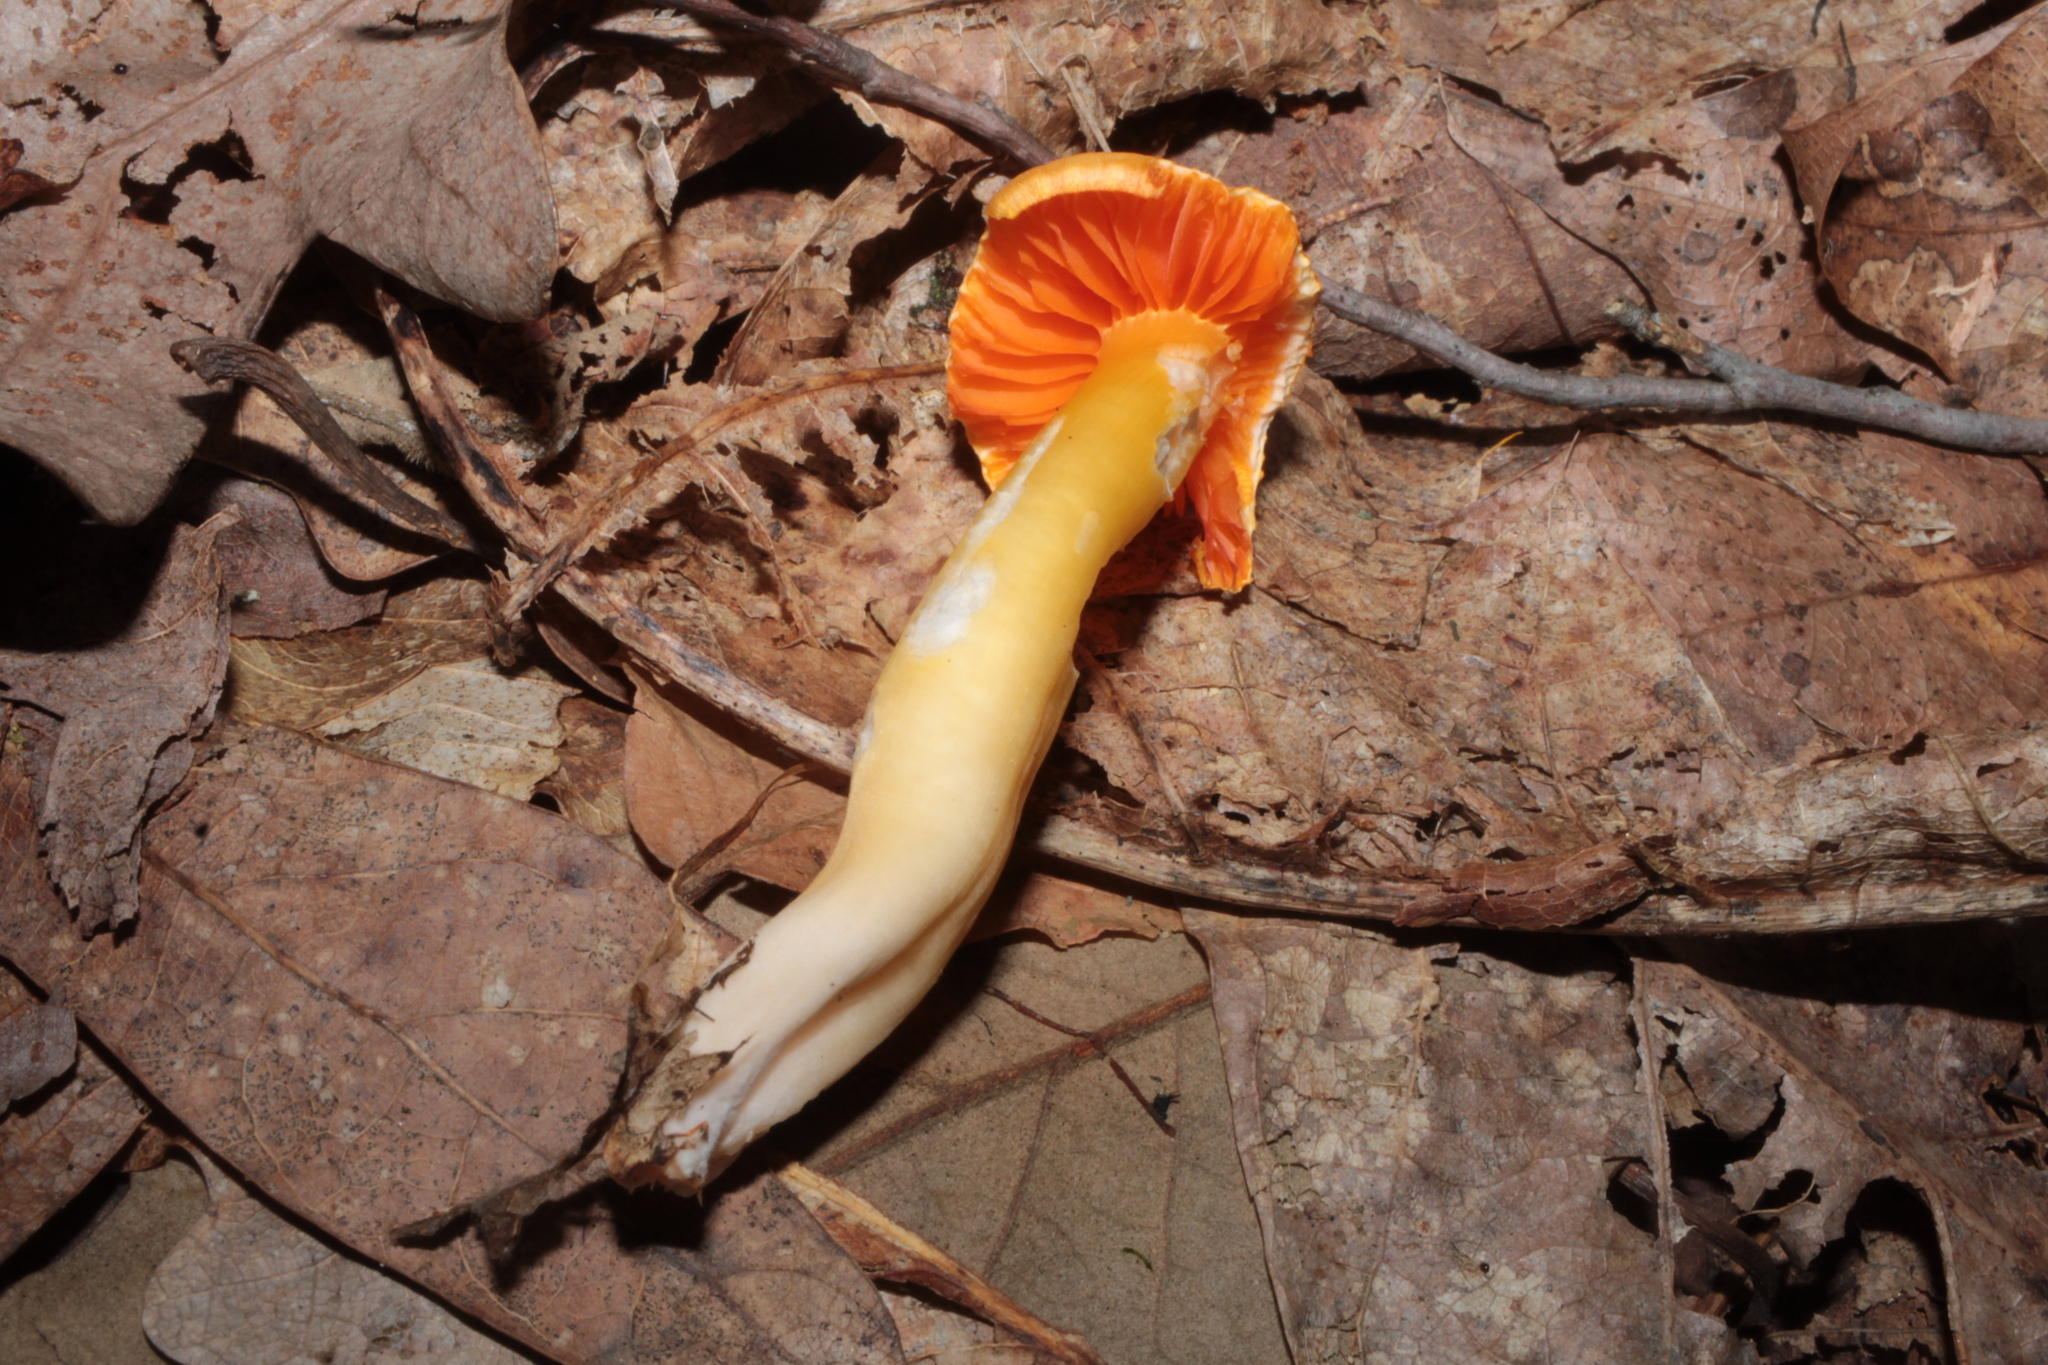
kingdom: Fungi
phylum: Basidiomycota
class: Agaricomycetes
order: Agaricales
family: Hygrophoraceae
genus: Humidicutis
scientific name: Humidicutis marginata
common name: Orange gilled waxcap
